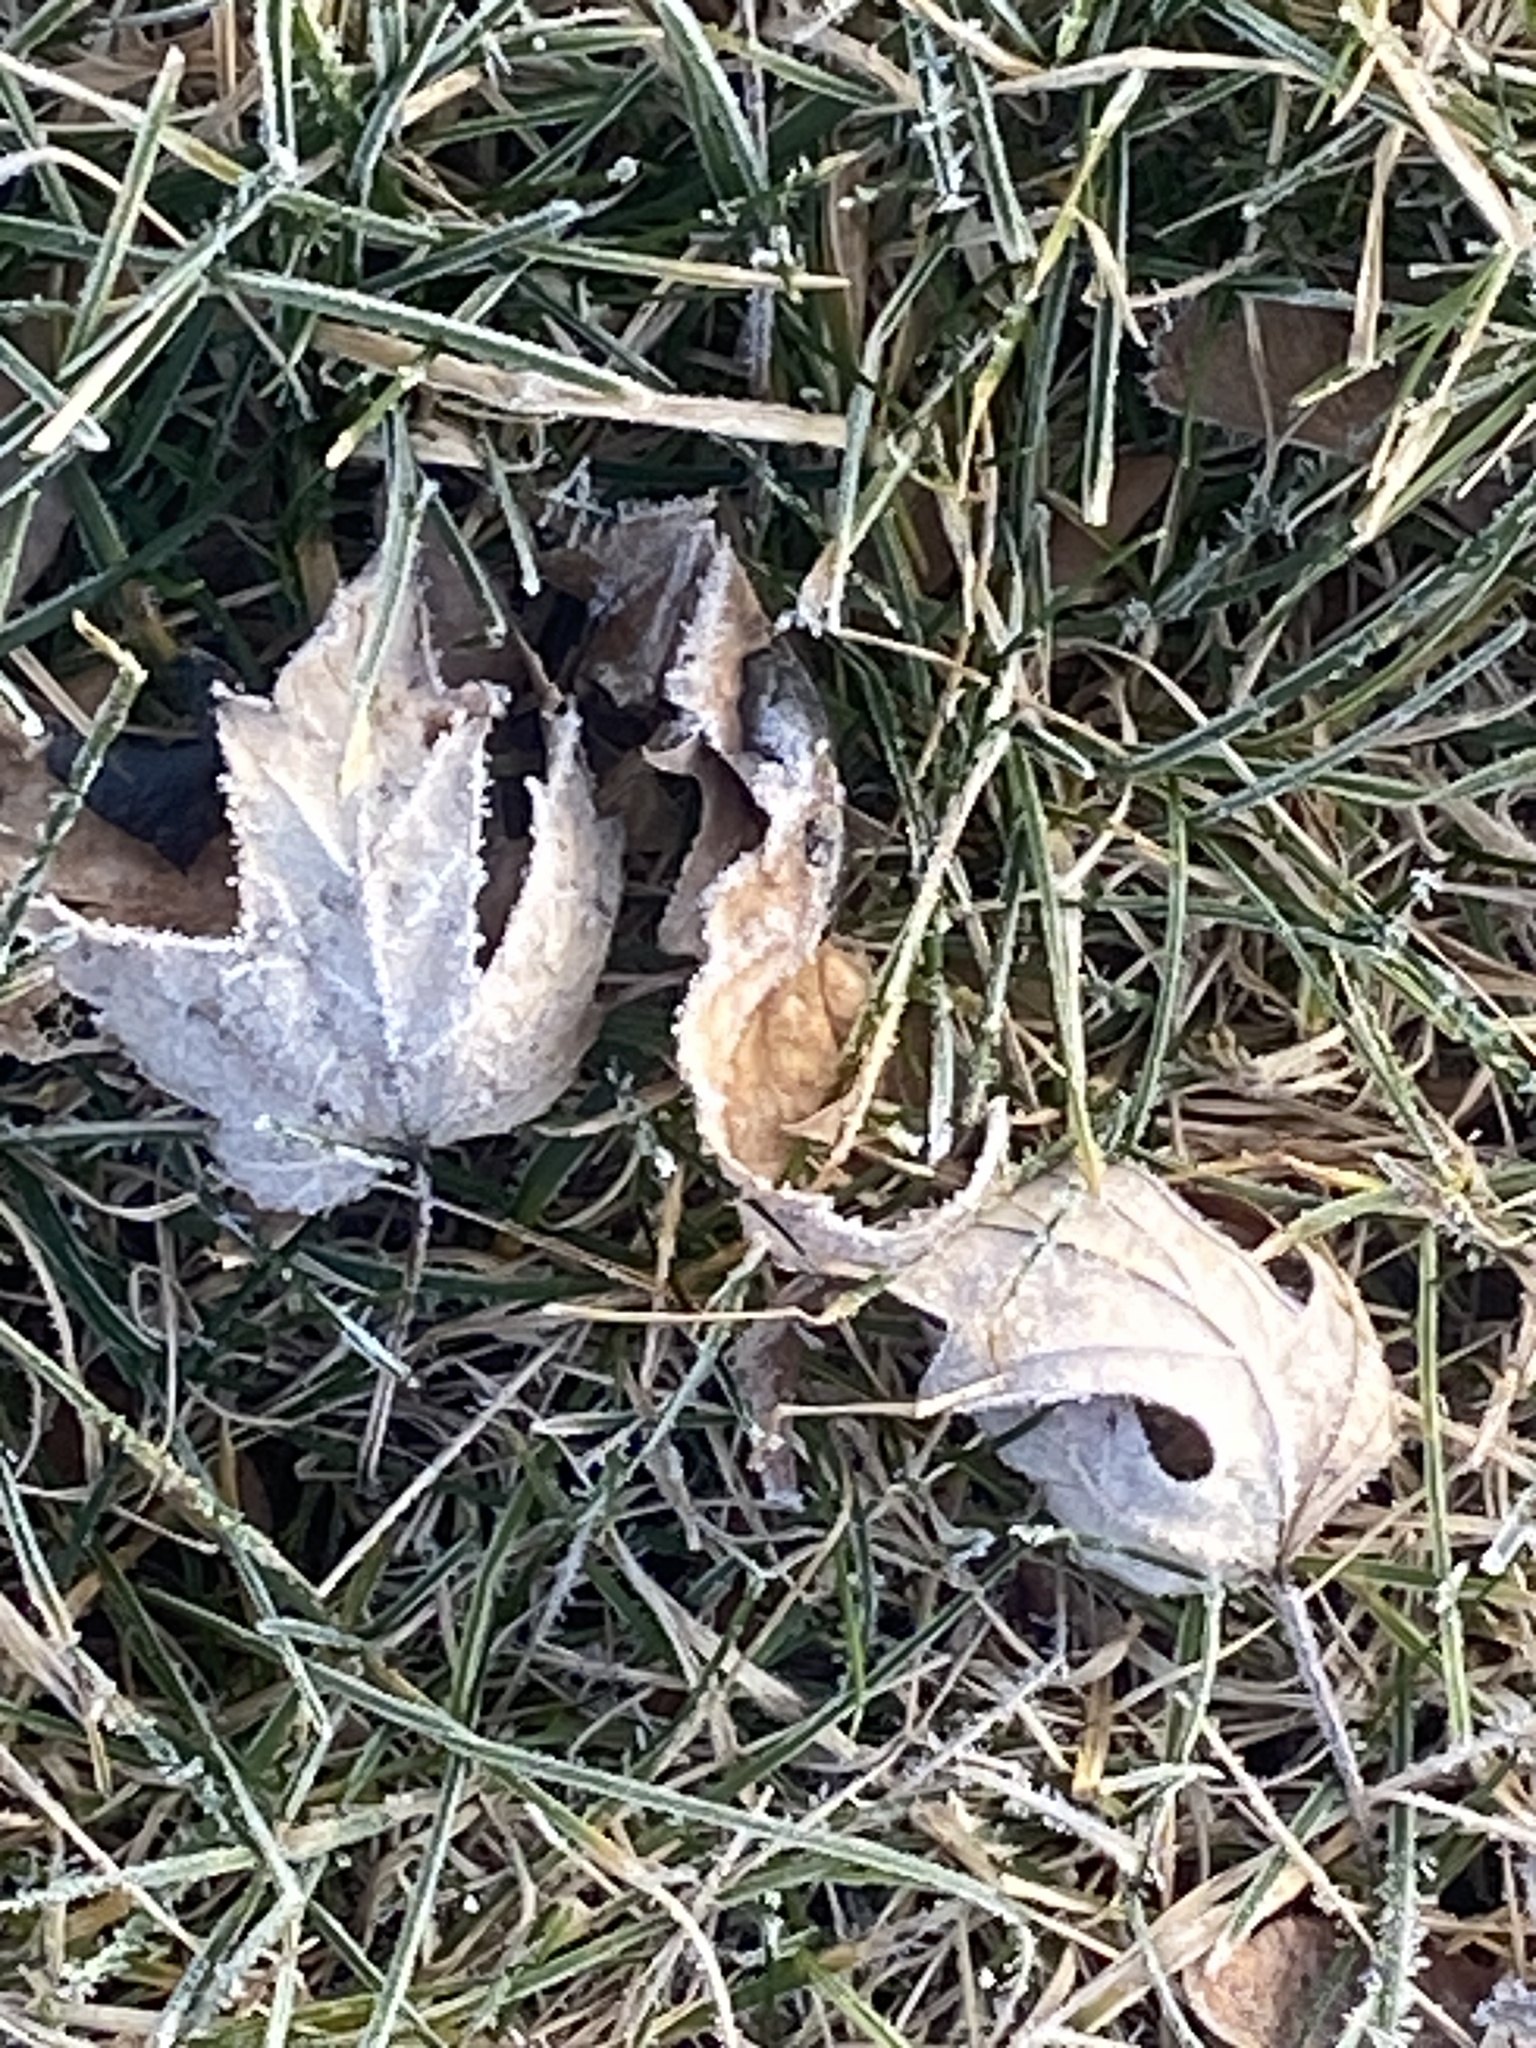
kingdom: Plantae
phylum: Tracheophyta
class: Magnoliopsida
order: Sapindales
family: Sapindaceae
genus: Acer
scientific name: Acer saccharinum
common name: Silver maple
